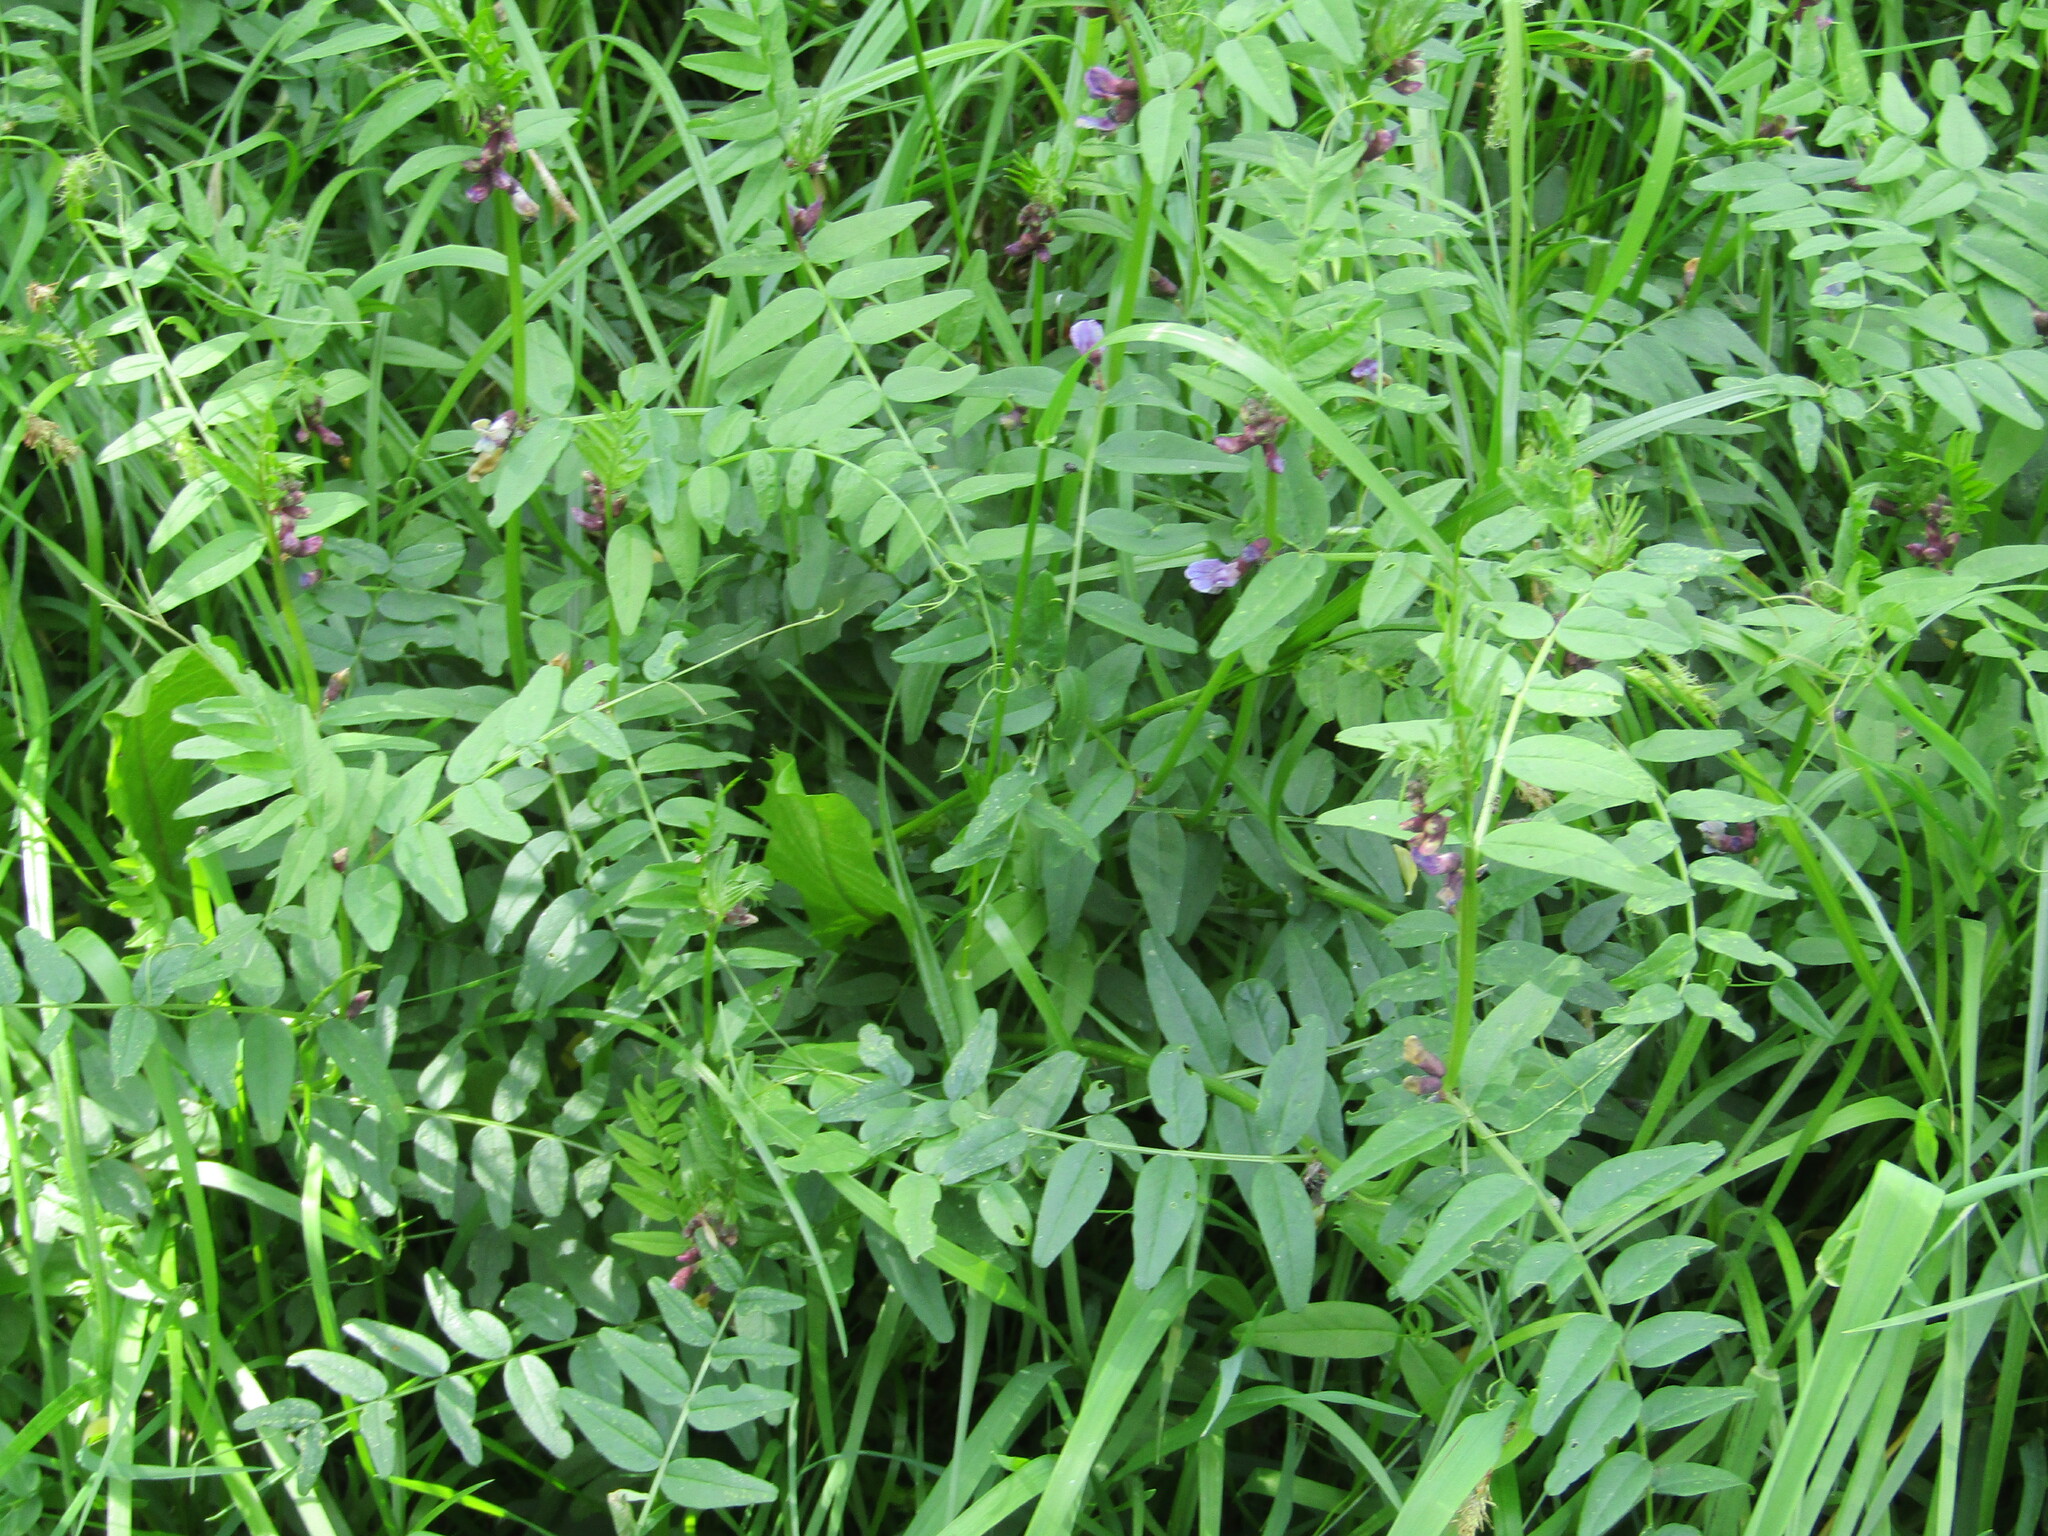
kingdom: Plantae
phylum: Tracheophyta
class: Magnoliopsida
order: Fabales
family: Fabaceae
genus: Vicia
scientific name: Vicia sepium
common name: Bush vetch
